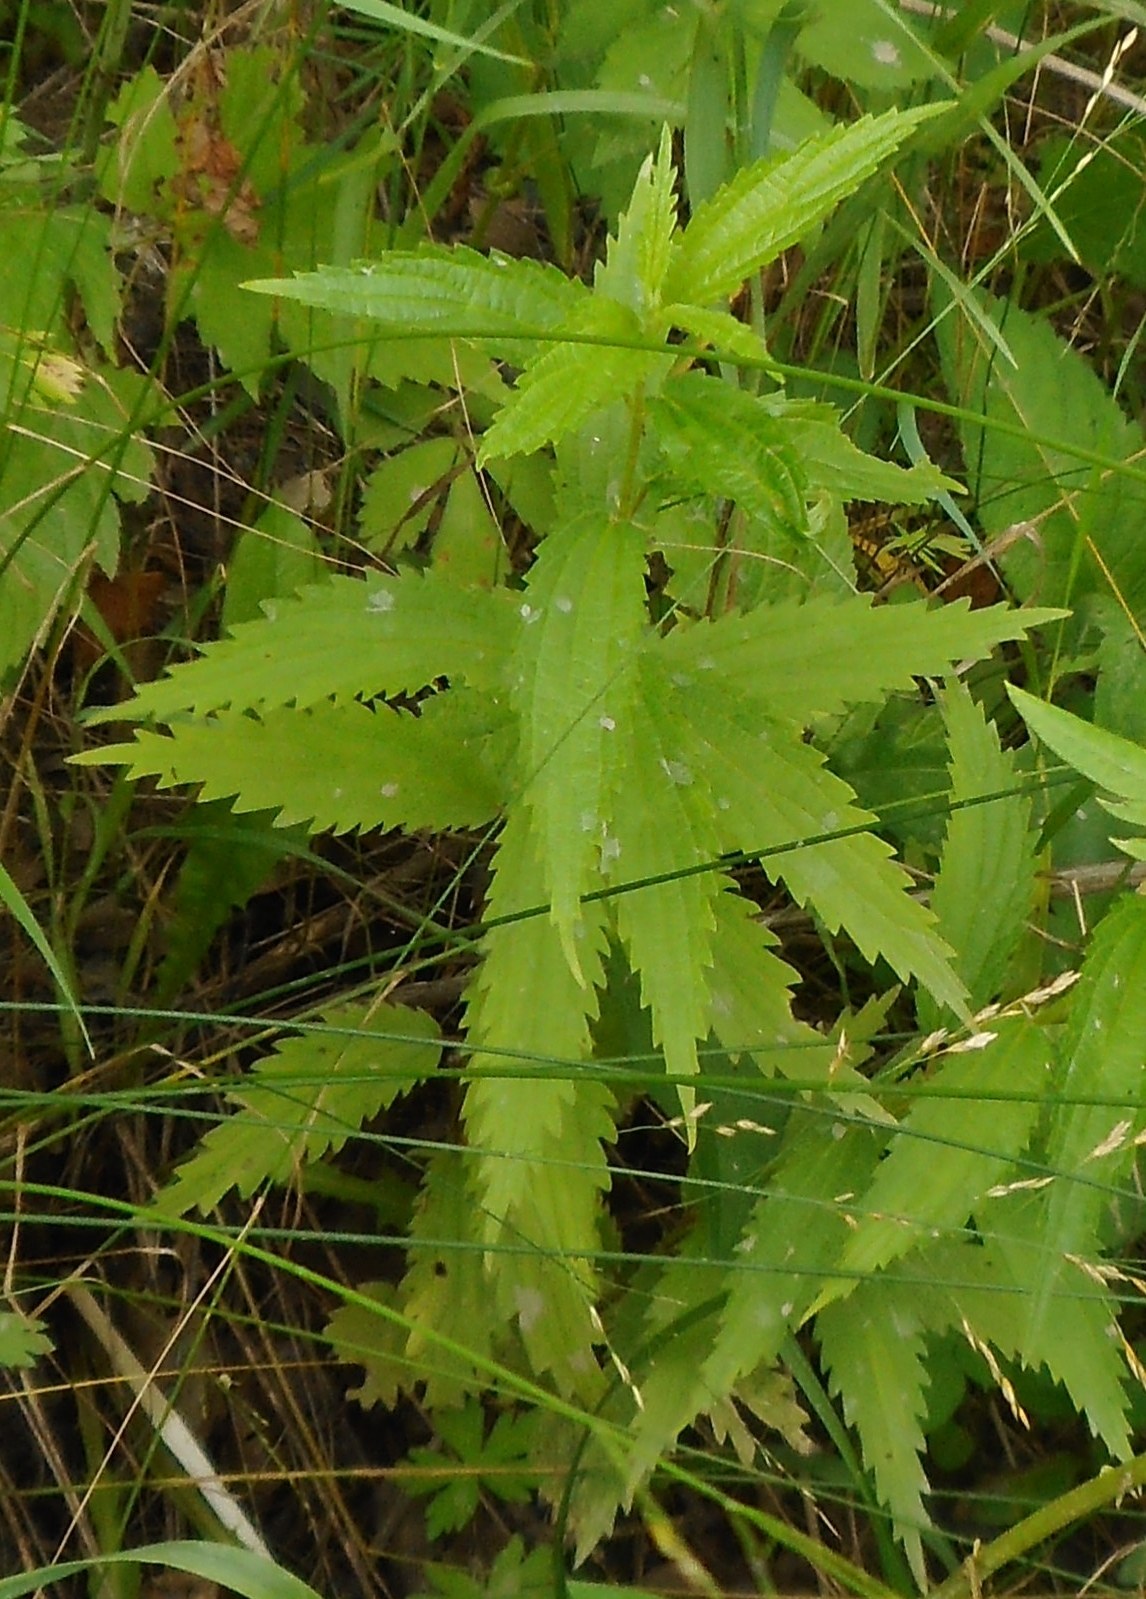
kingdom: Plantae
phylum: Tracheophyta
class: Magnoliopsida
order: Rosales
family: Urticaceae
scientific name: Urticaceae
